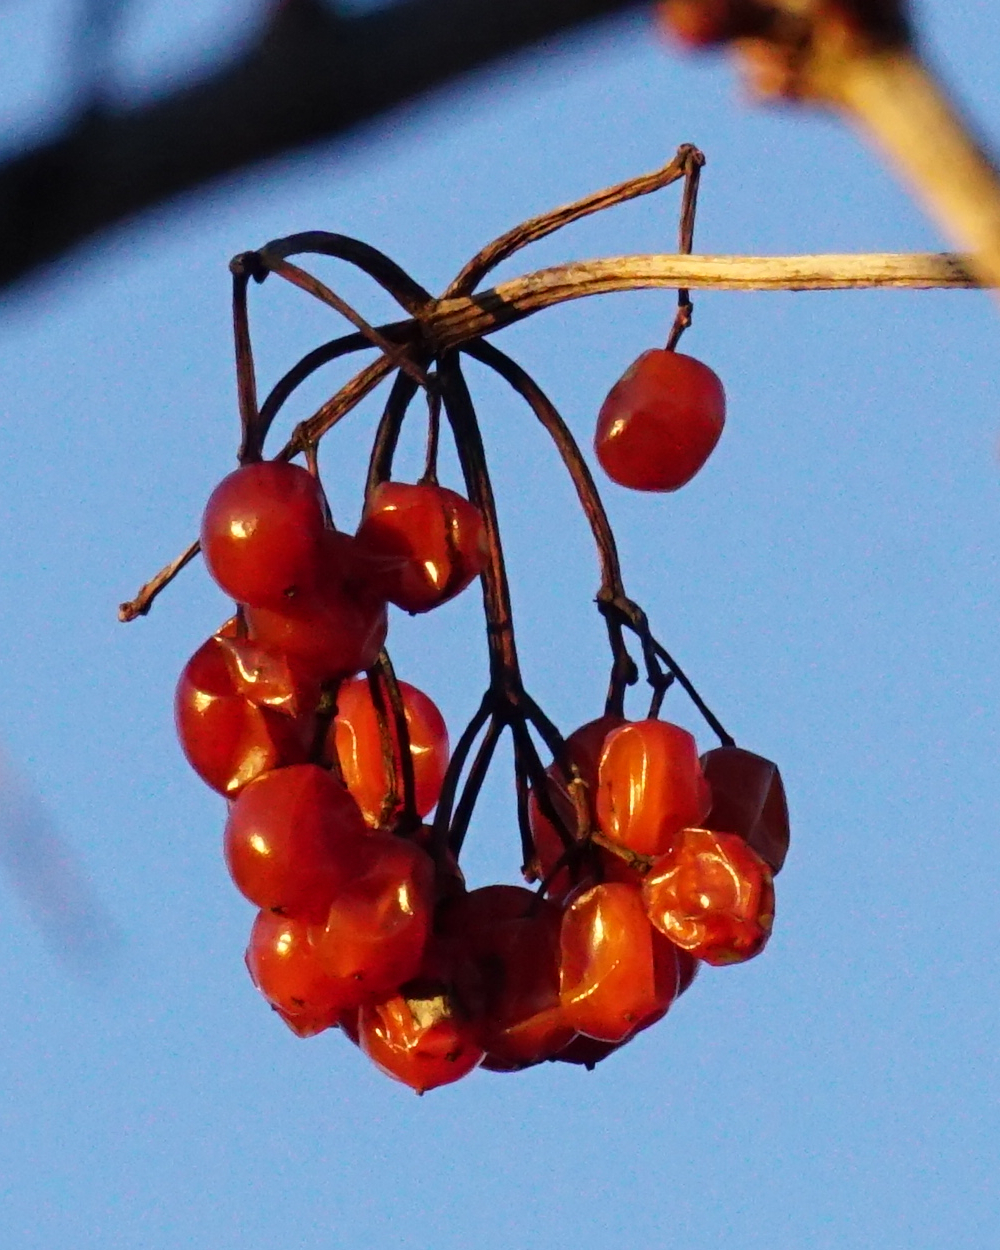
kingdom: Plantae
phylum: Tracheophyta
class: Magnoliopsida
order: Dipsacales
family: Viburnaceae
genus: Viburnum
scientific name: Viburnum opulus
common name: Guelder-rose
